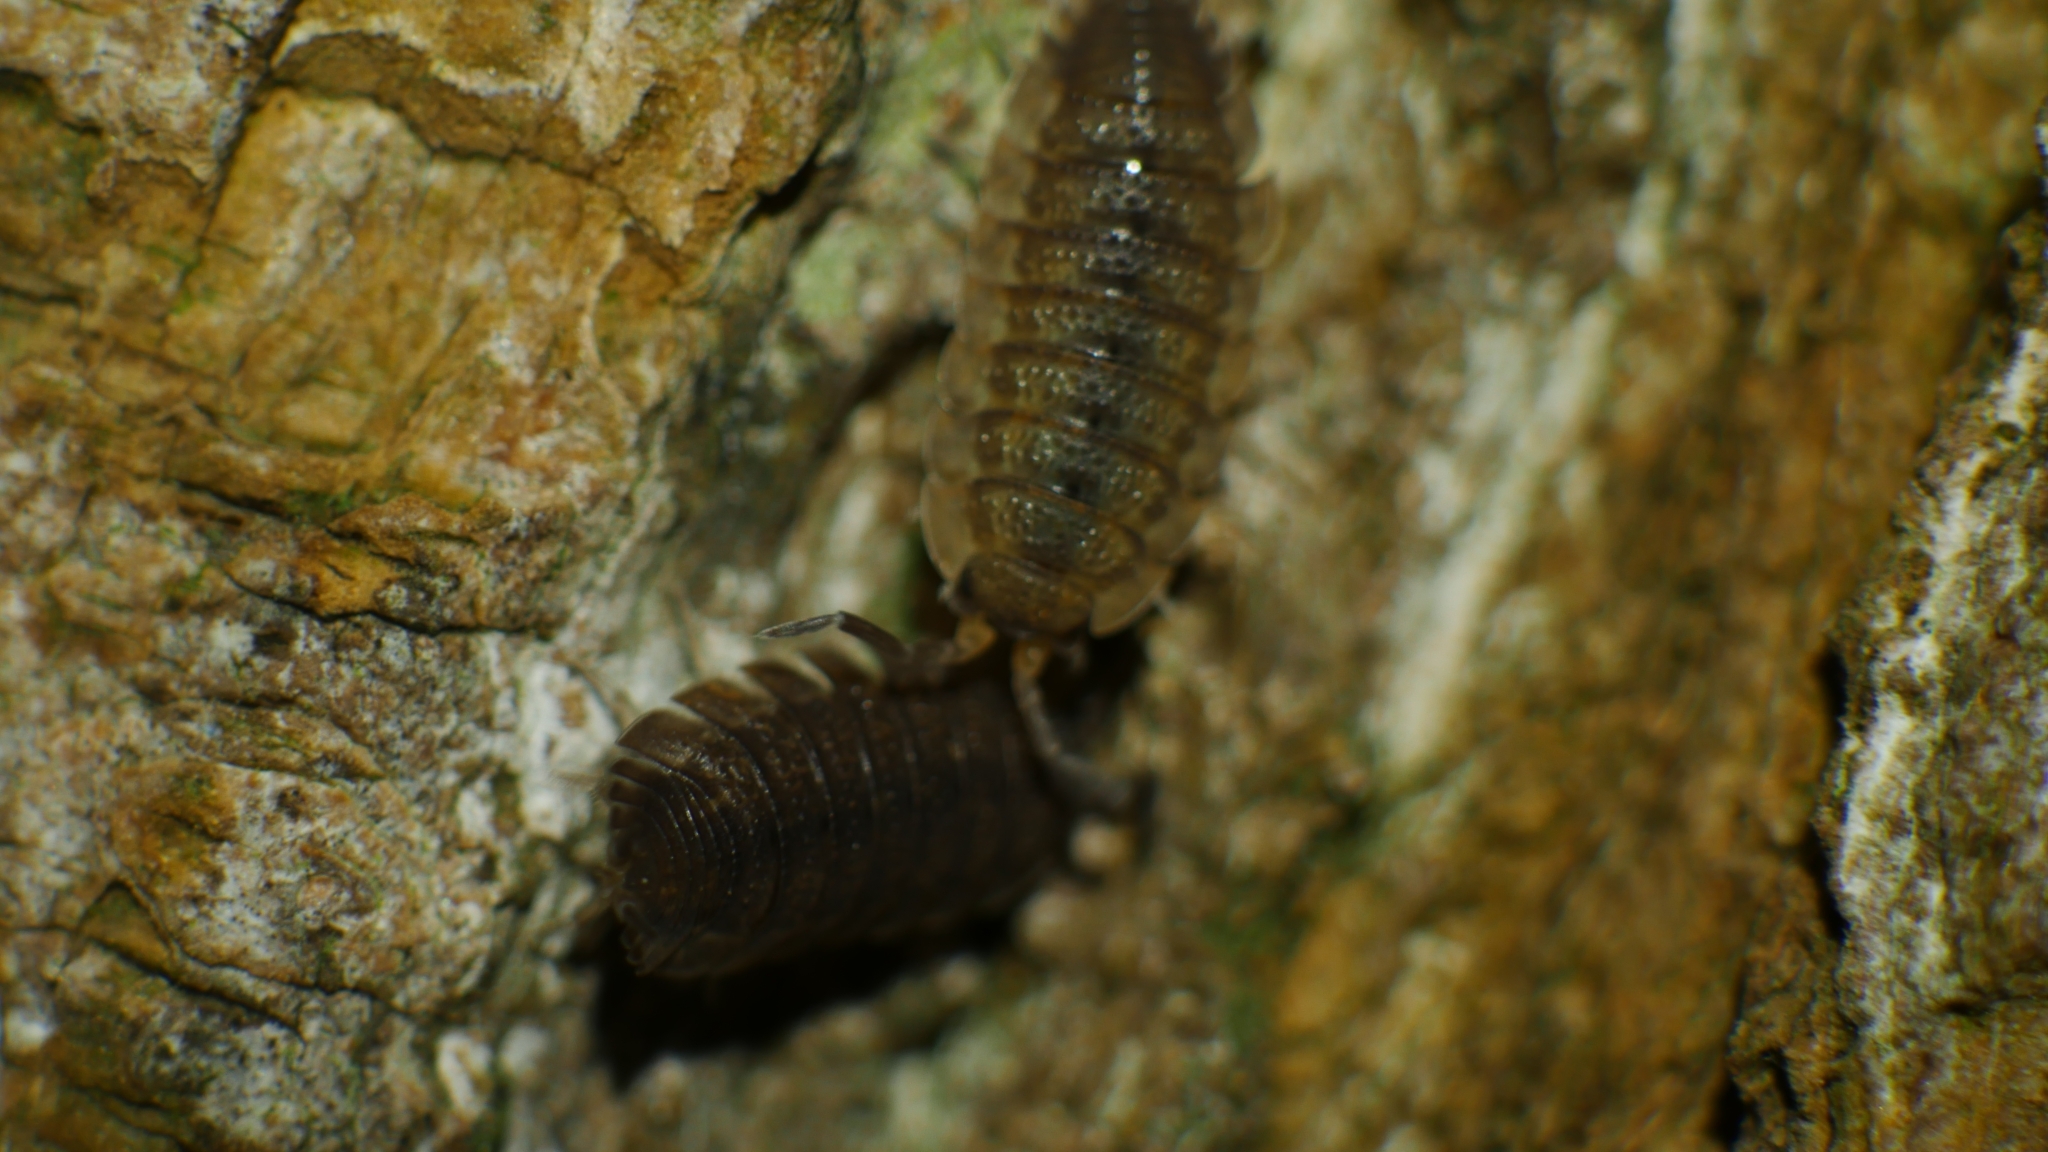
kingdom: Animalia
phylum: Arthropoda
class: Malacostraca
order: Isopoda
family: Porcellionidae
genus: Porcellio
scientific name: Porcellio scaber
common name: Common rough woodlouse
